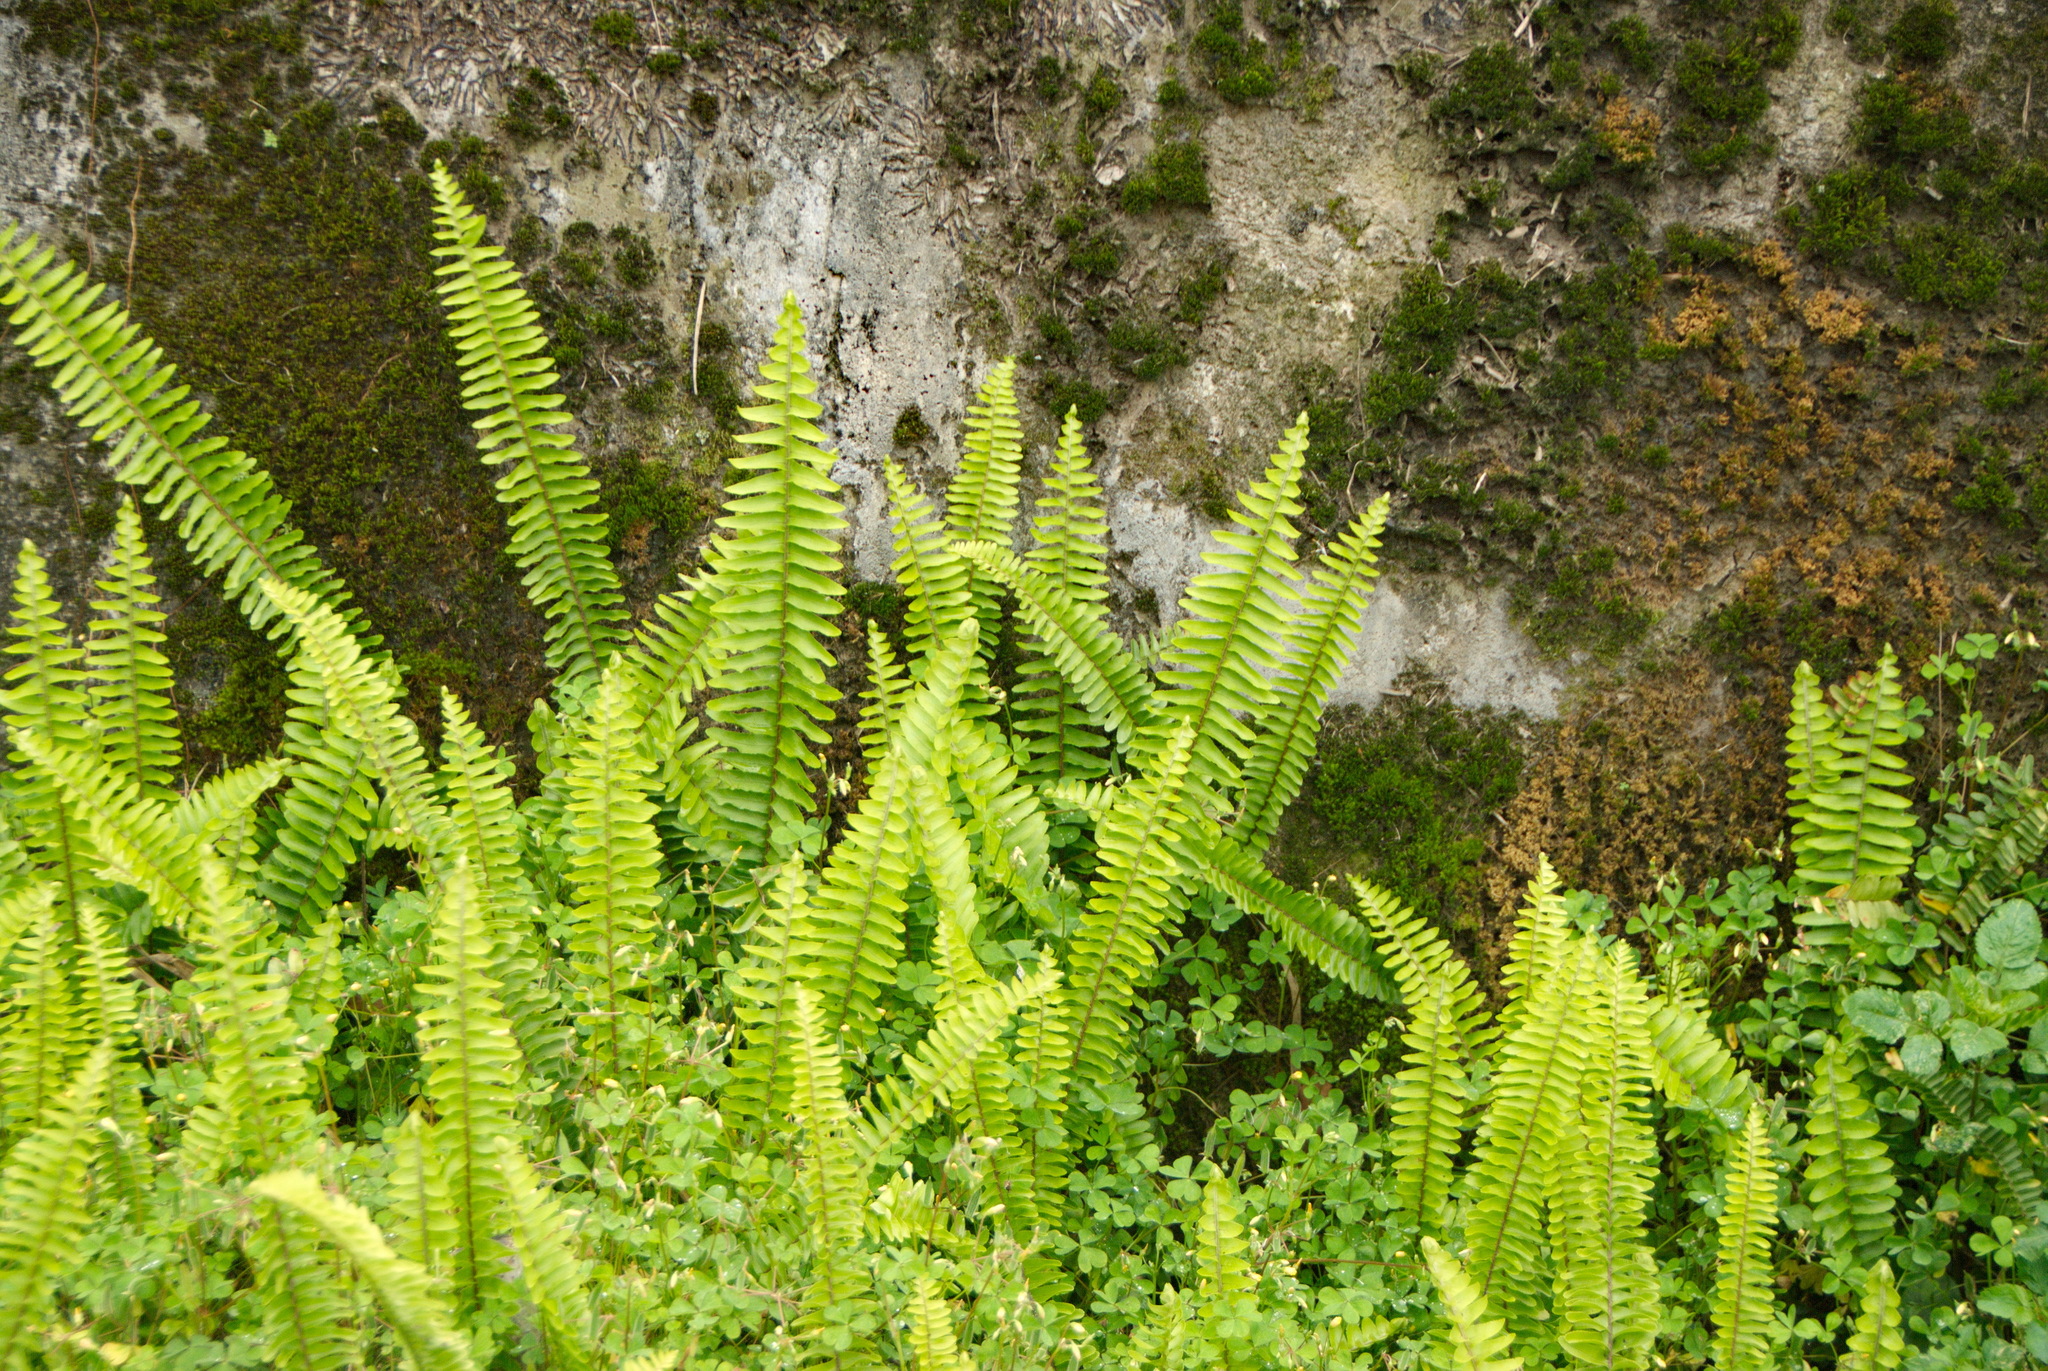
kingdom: Plantae
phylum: Tracheophyta
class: Polypodiopsida
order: Polypodiales
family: Nephrolepidaceae
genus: Nephrolepis
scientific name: Nephrolepis cordifolia
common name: Narrow swordfern
